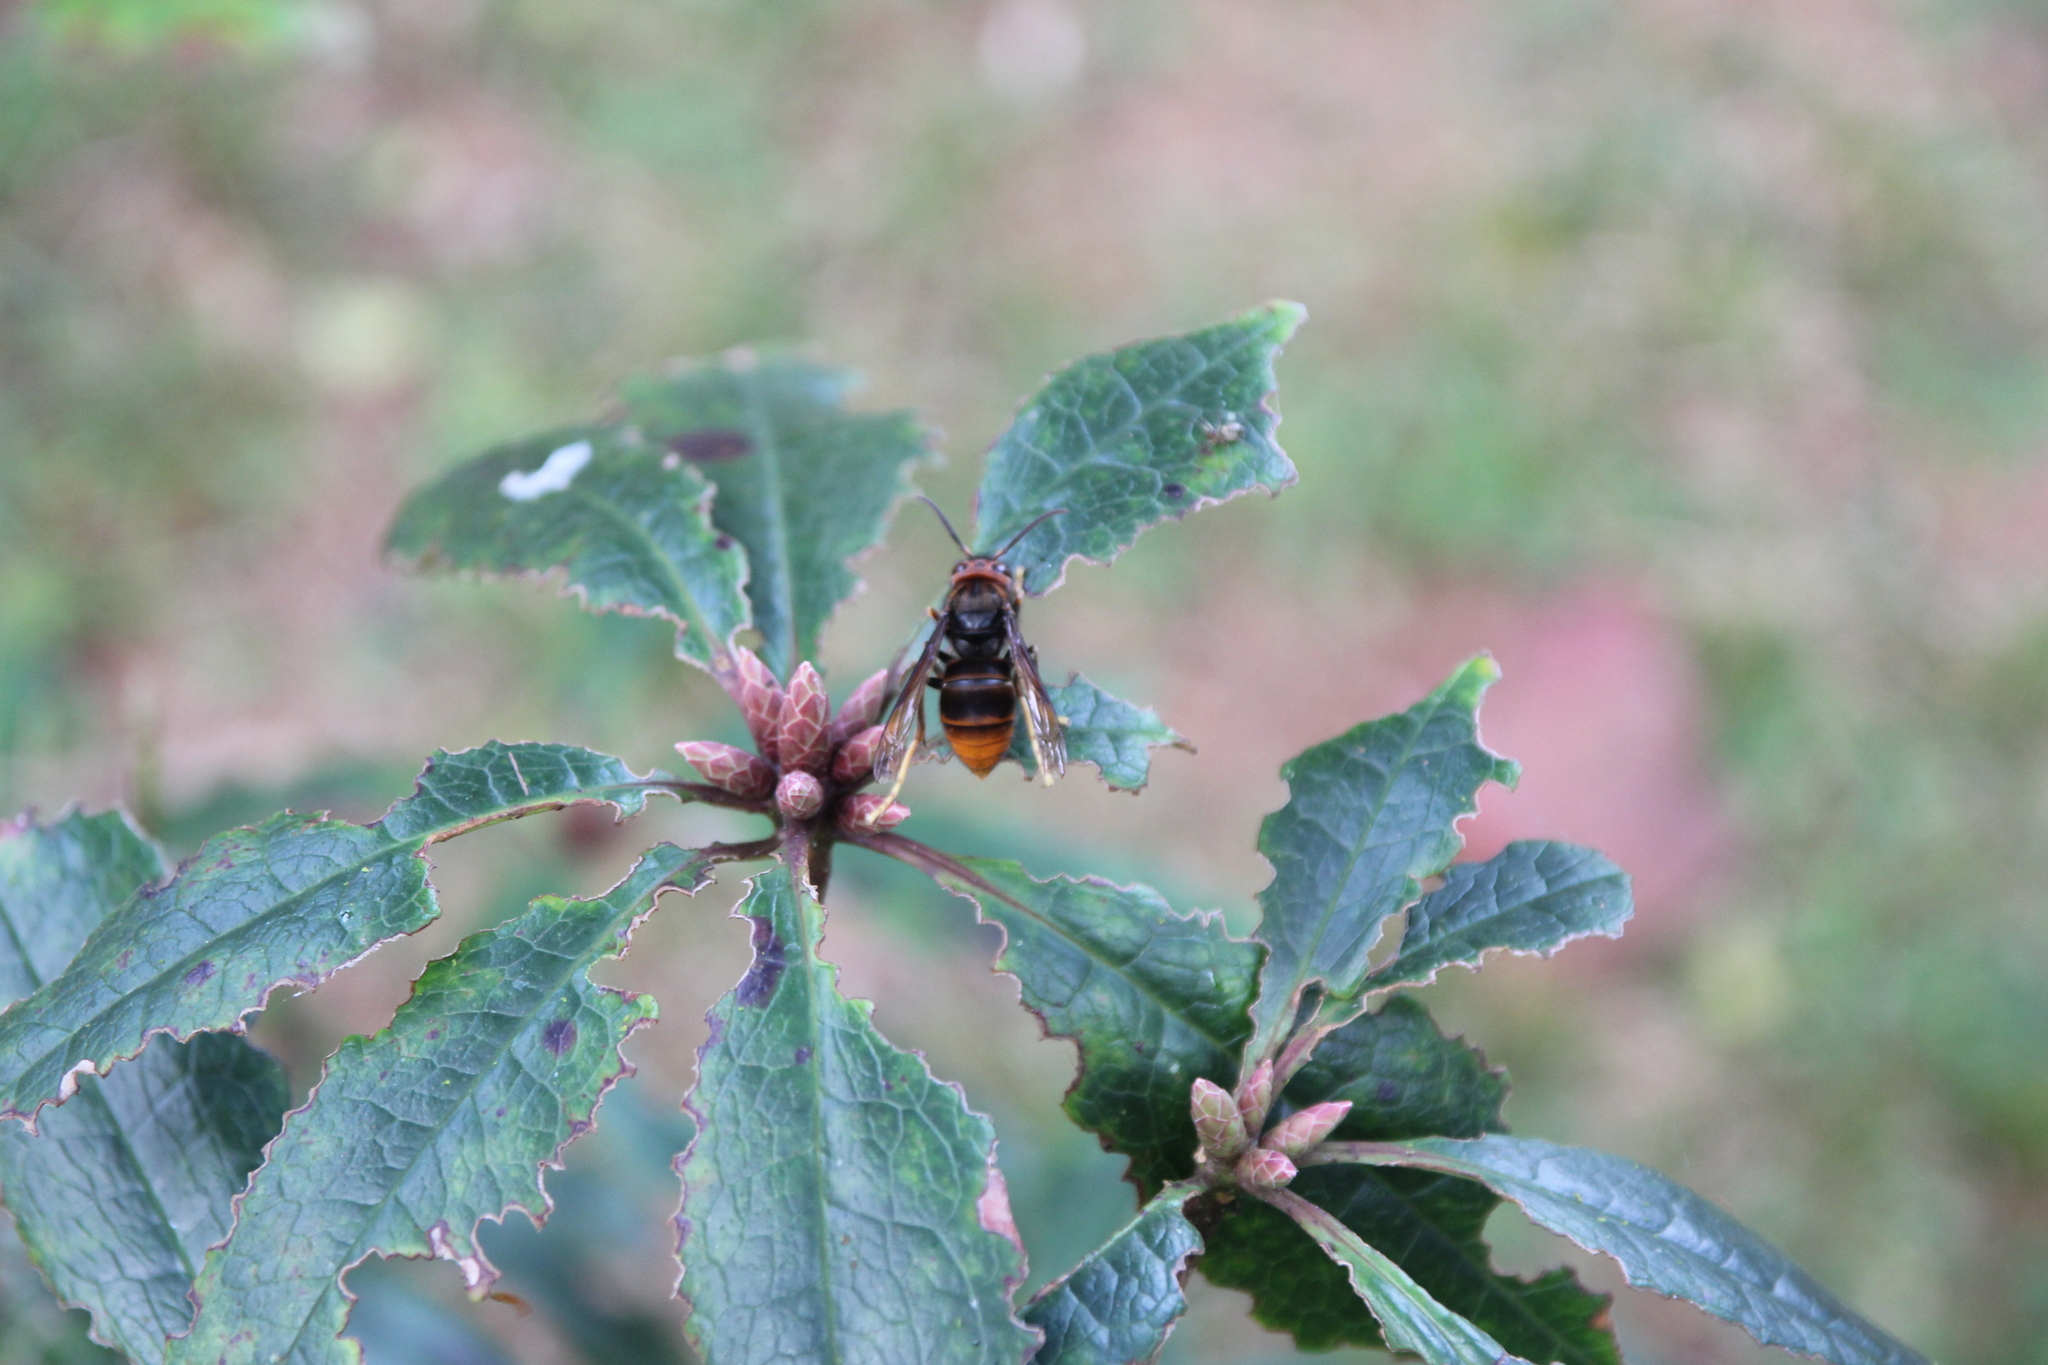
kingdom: Animalia
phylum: Arthropoda
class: Insecta
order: Hymenoptera
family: Vespidae
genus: Vespa
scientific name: Vespa velutina
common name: Asian hornet
